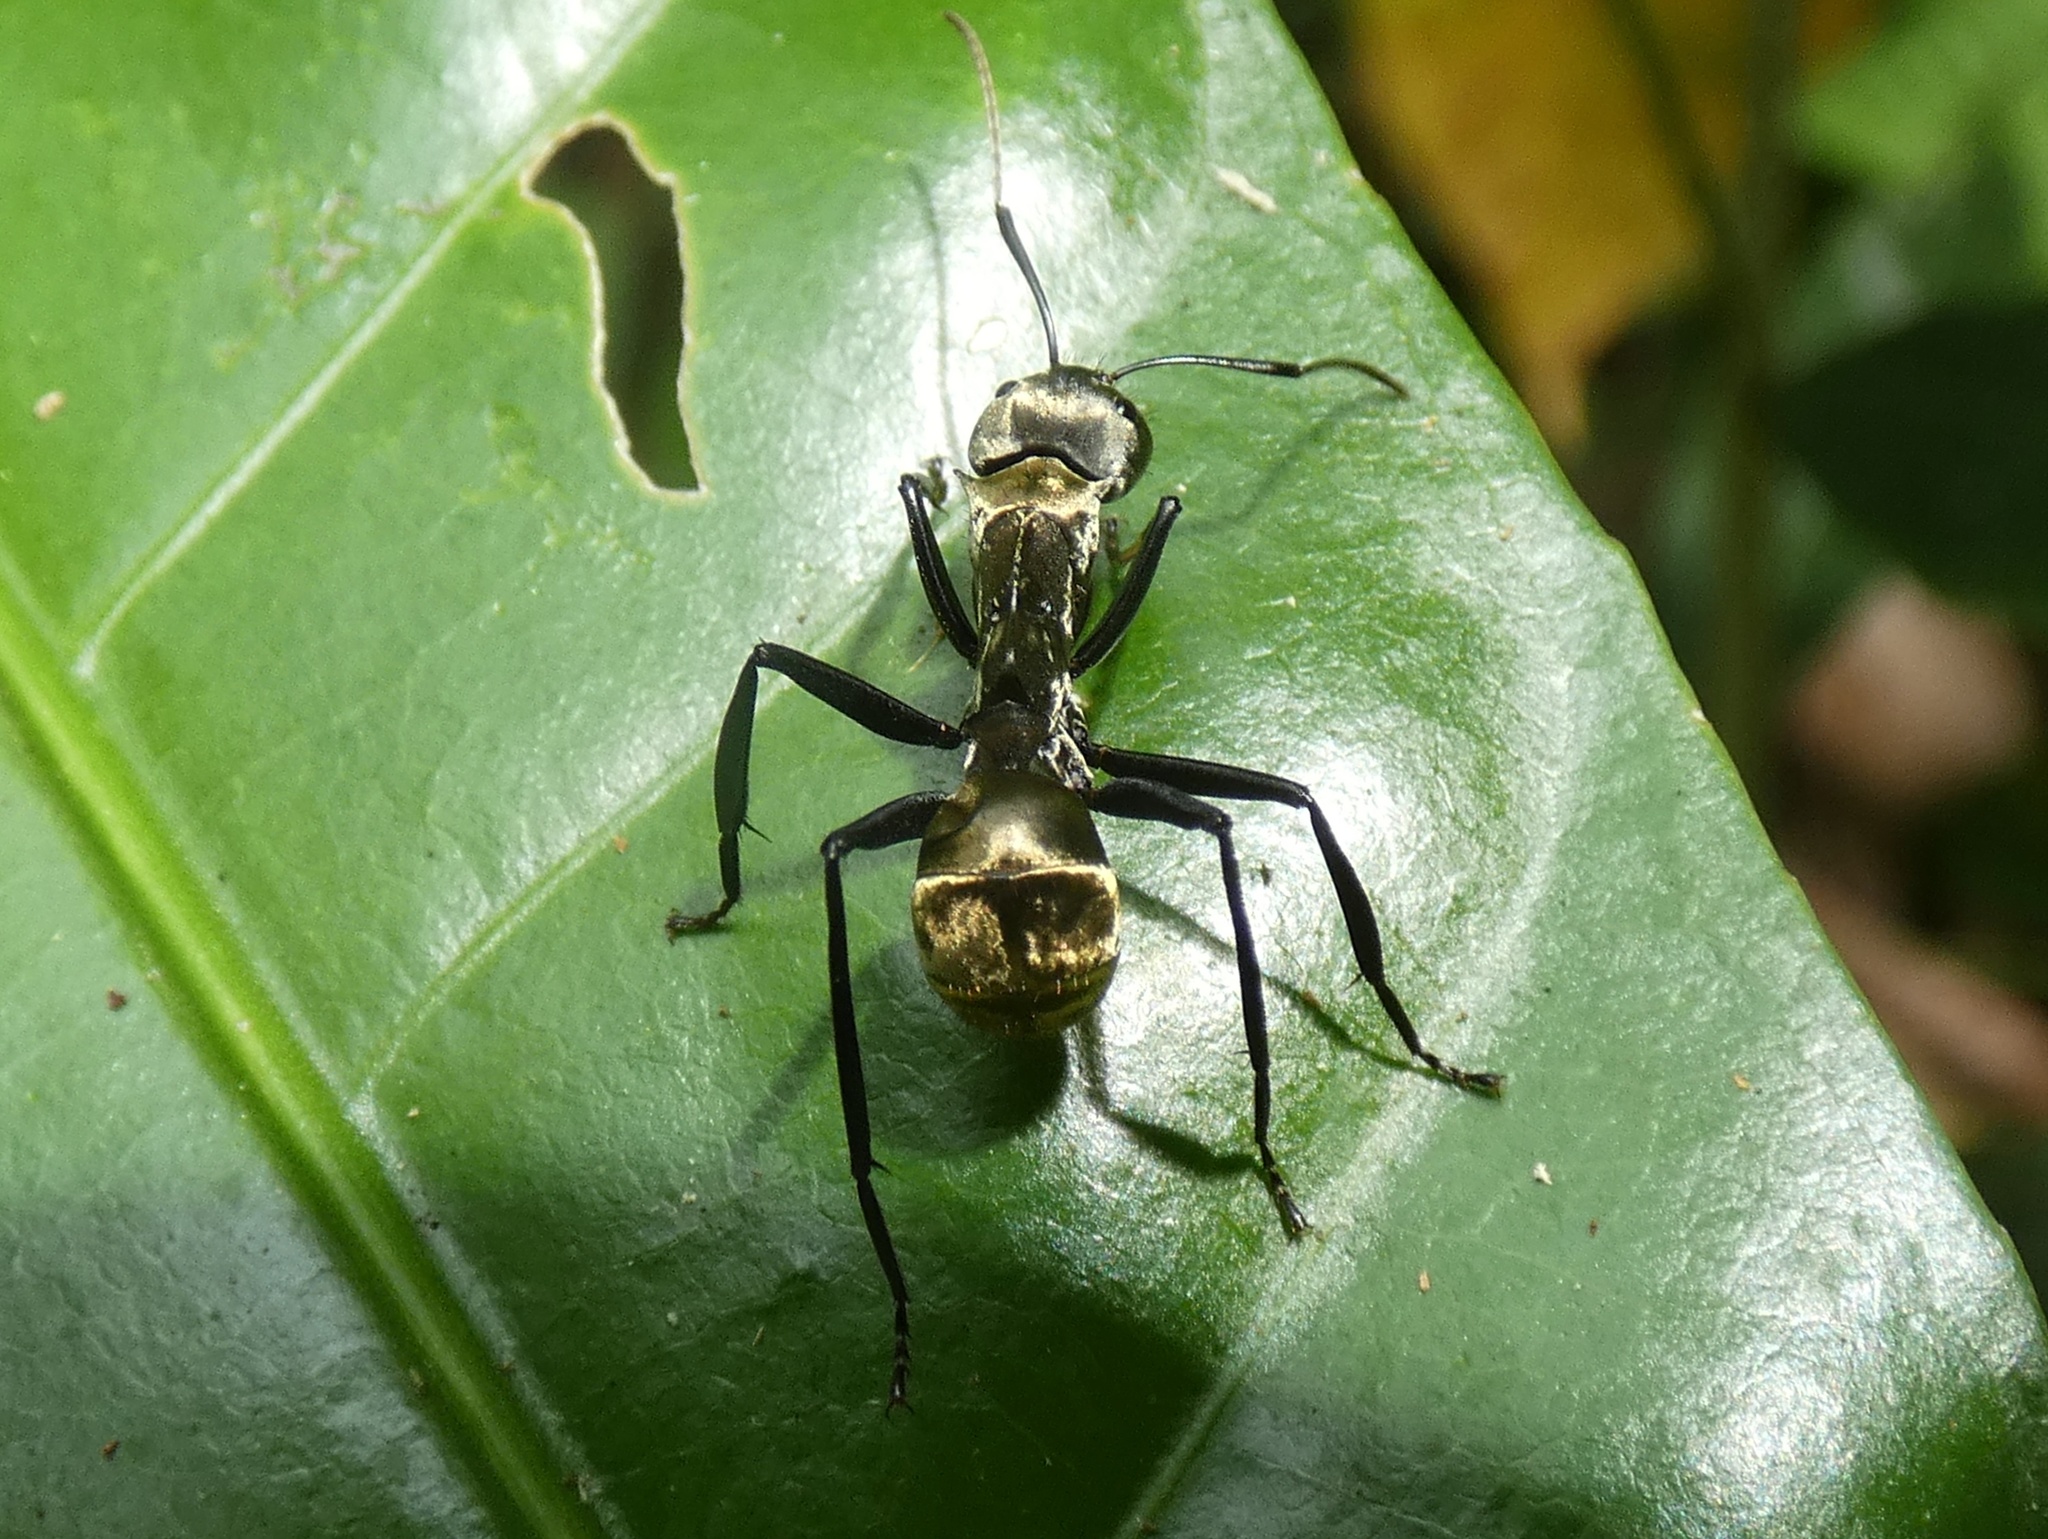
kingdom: Animalia
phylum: Arthropoda
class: Insecta
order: Hymenoptera
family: Formicidae
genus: Camponotus
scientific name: Camponotus sericeiventris
